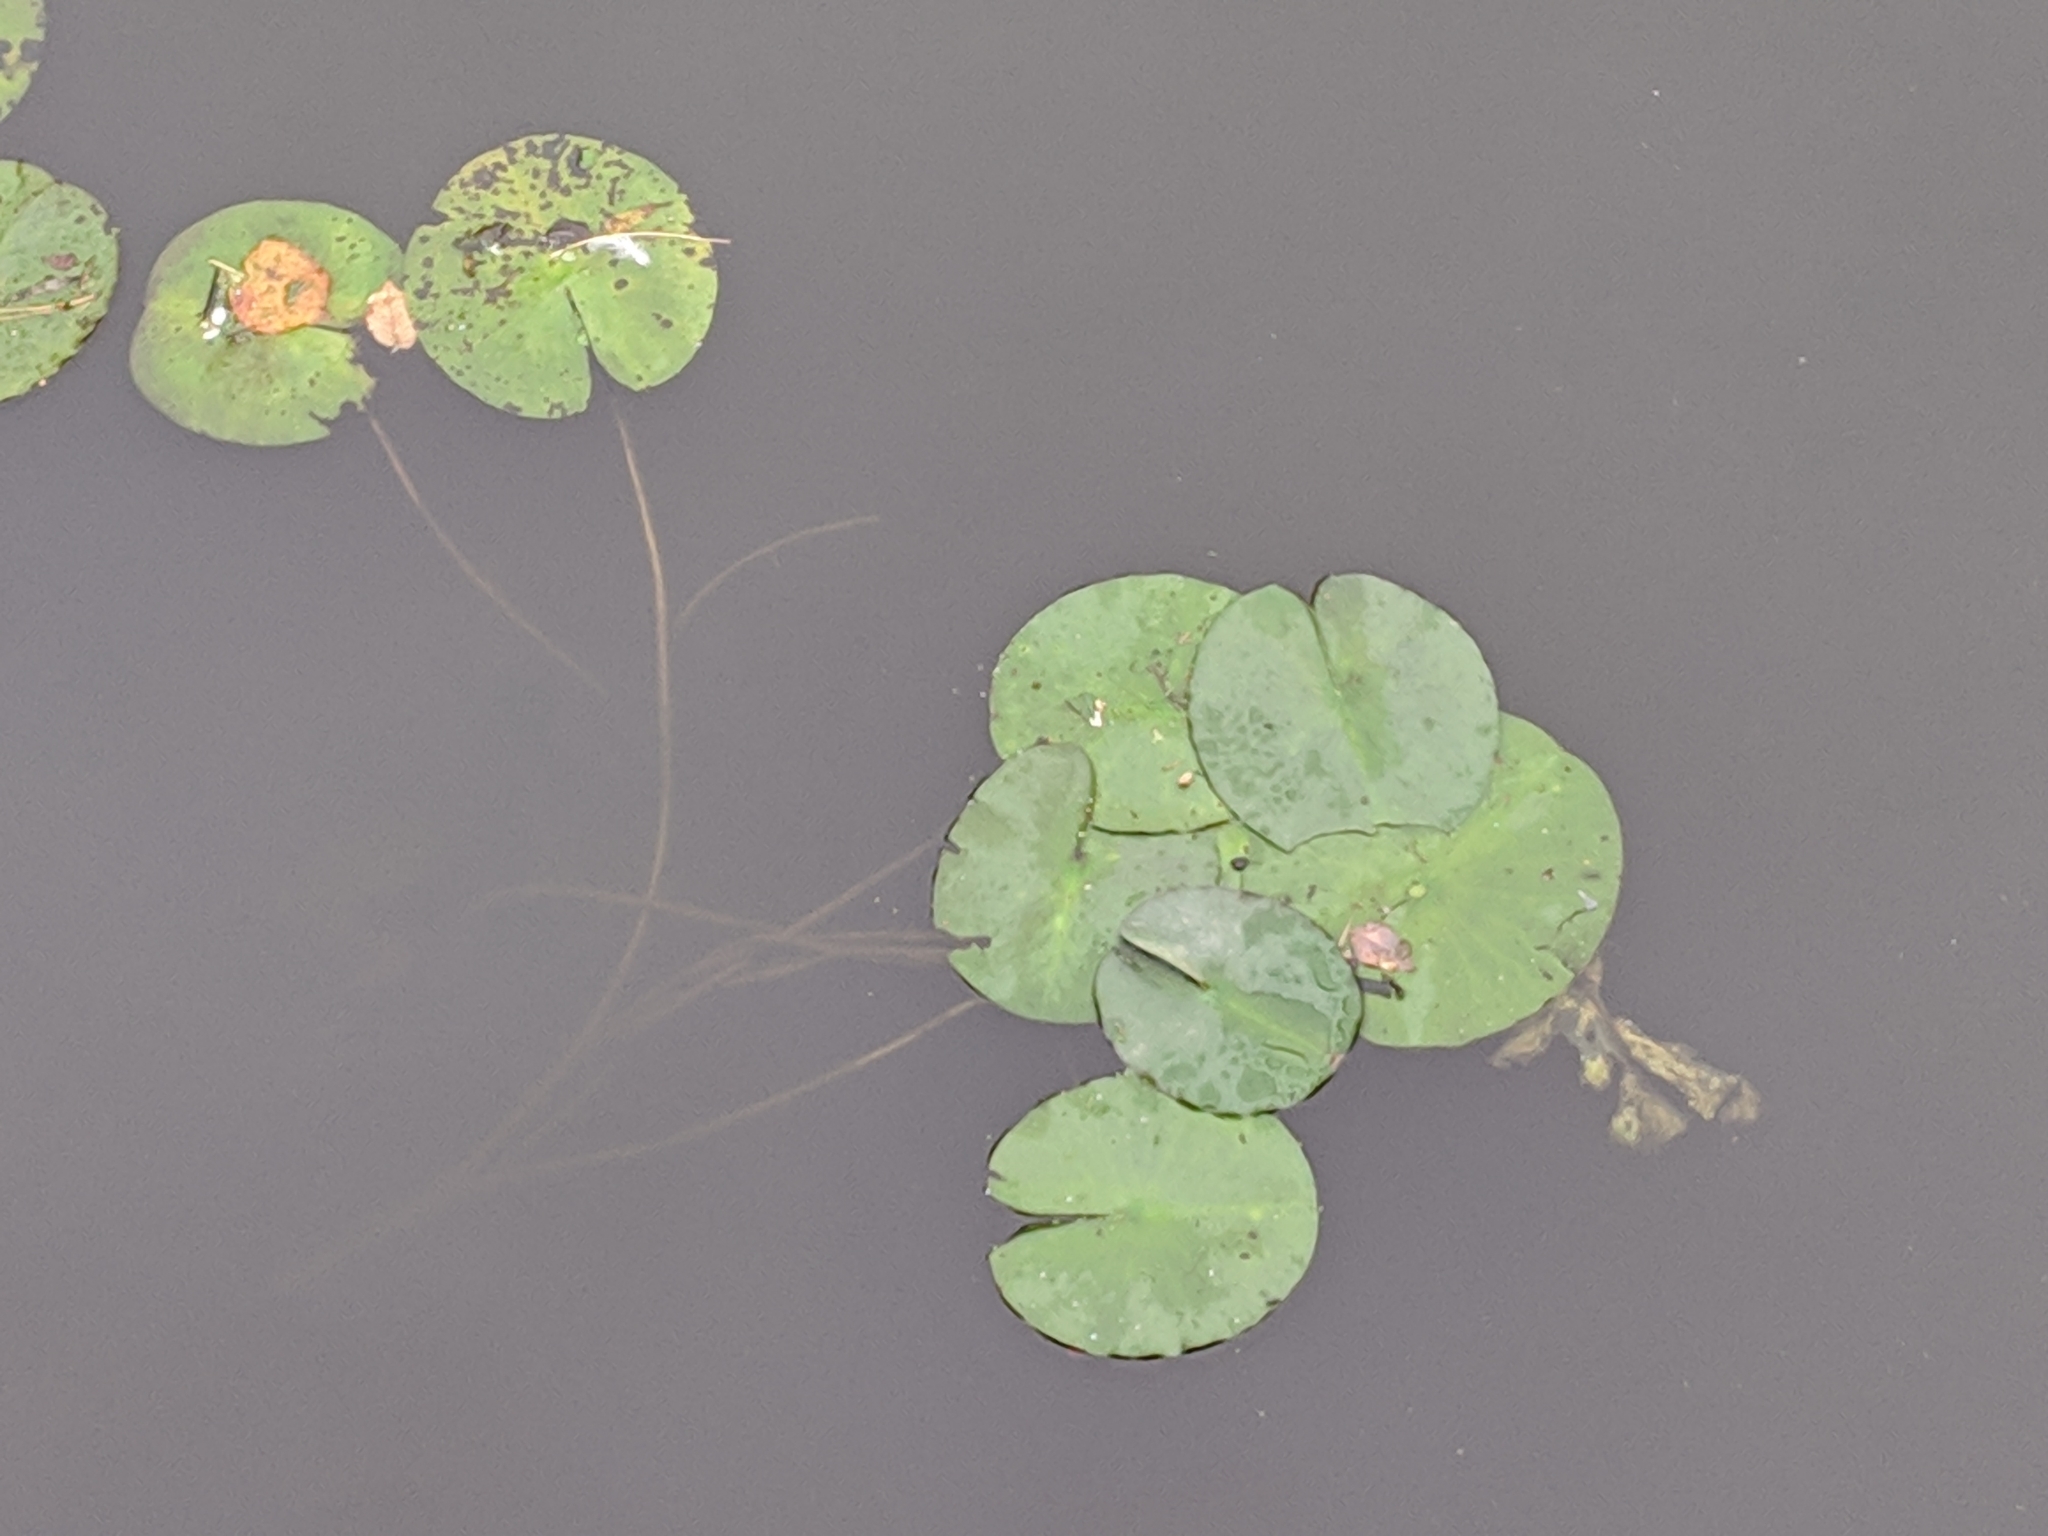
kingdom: Plantae
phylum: Tracheophyta
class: Magnoliopsida
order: Nymphaeales
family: Nymphaeaceae
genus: Nuphar
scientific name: Nuphar lutea
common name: Yellow water-lily
